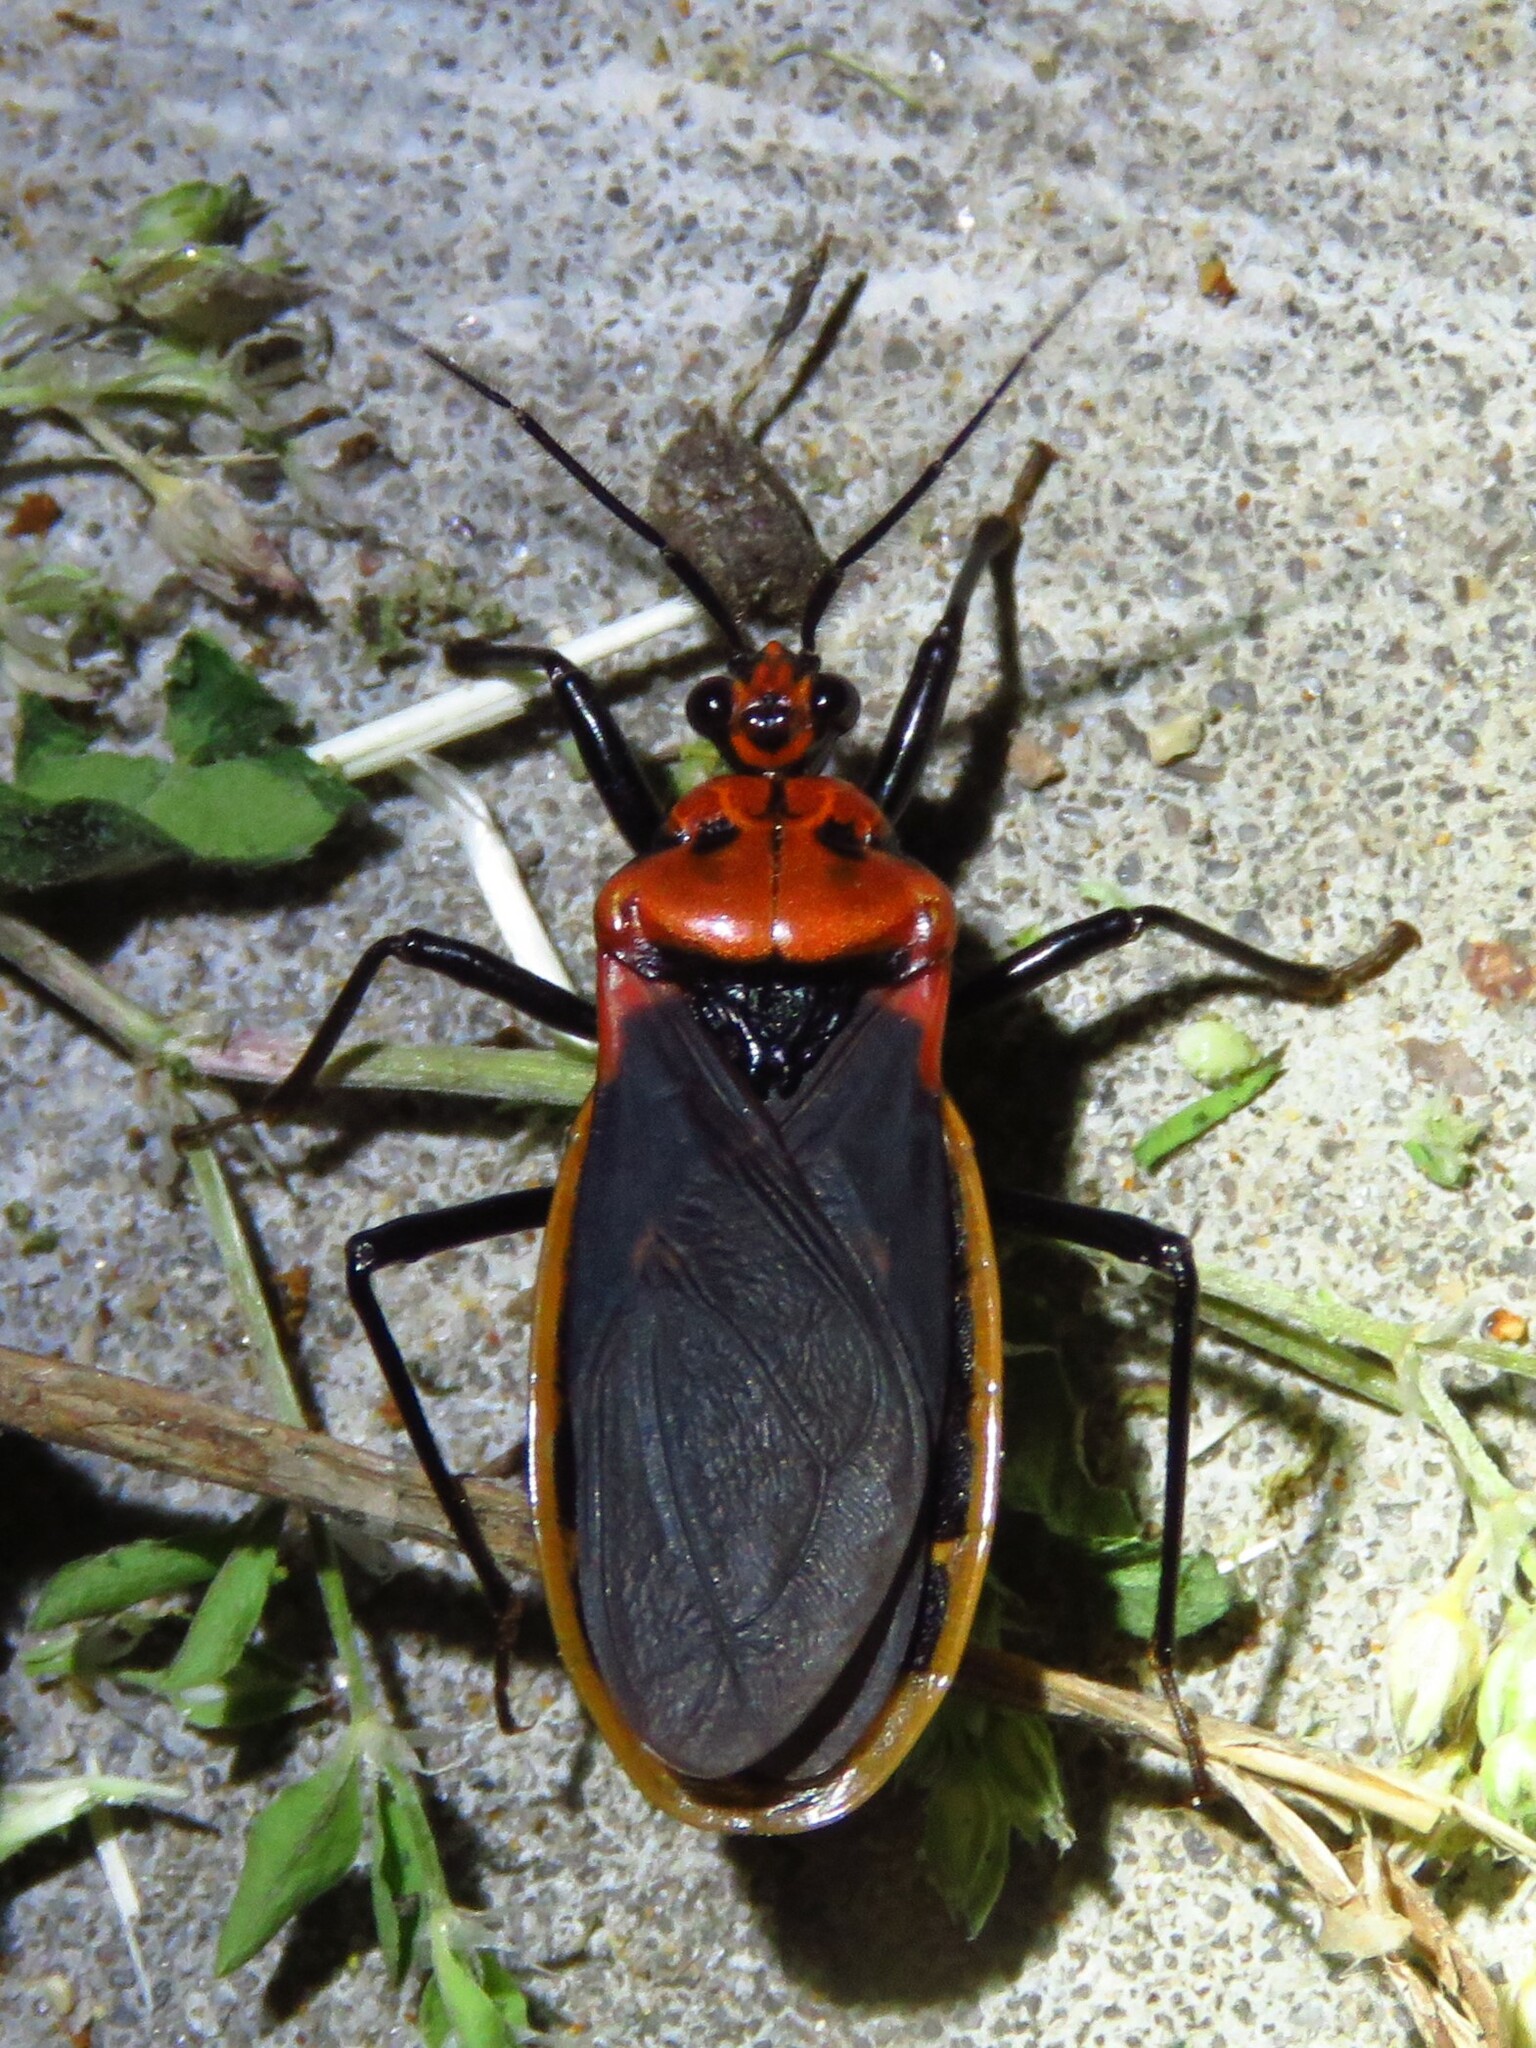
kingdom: Animalia
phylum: Arthropoda
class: Insecta
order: Hemiptera
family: Reduviidae
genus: Rhiginia
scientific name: Rhiginia cinctiventris
